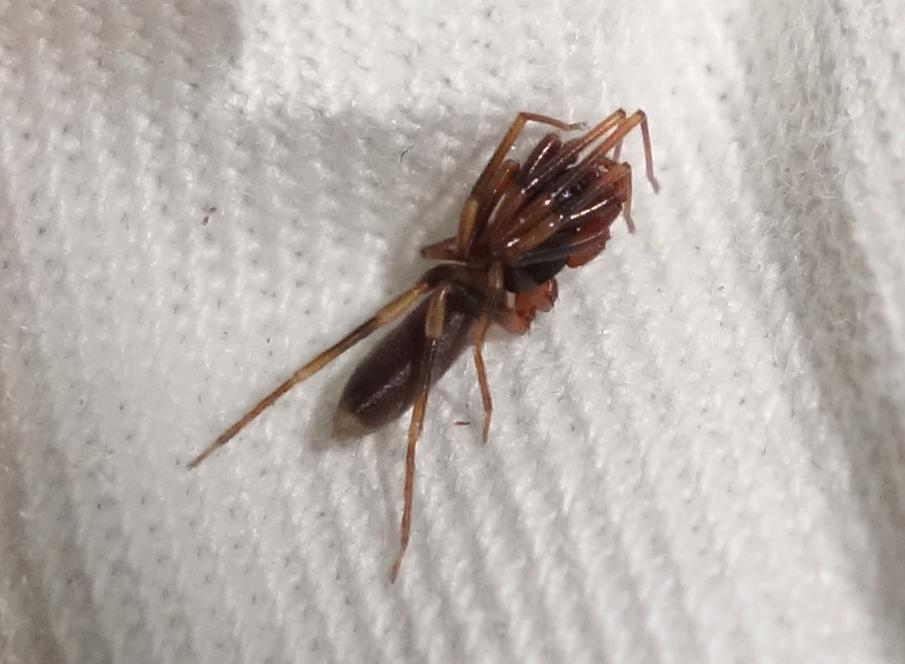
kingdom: Animalia
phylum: Arthropoda
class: Arachnida
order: Araneae
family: Dysderidae
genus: Harpactea
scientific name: Harpactea hombergi
